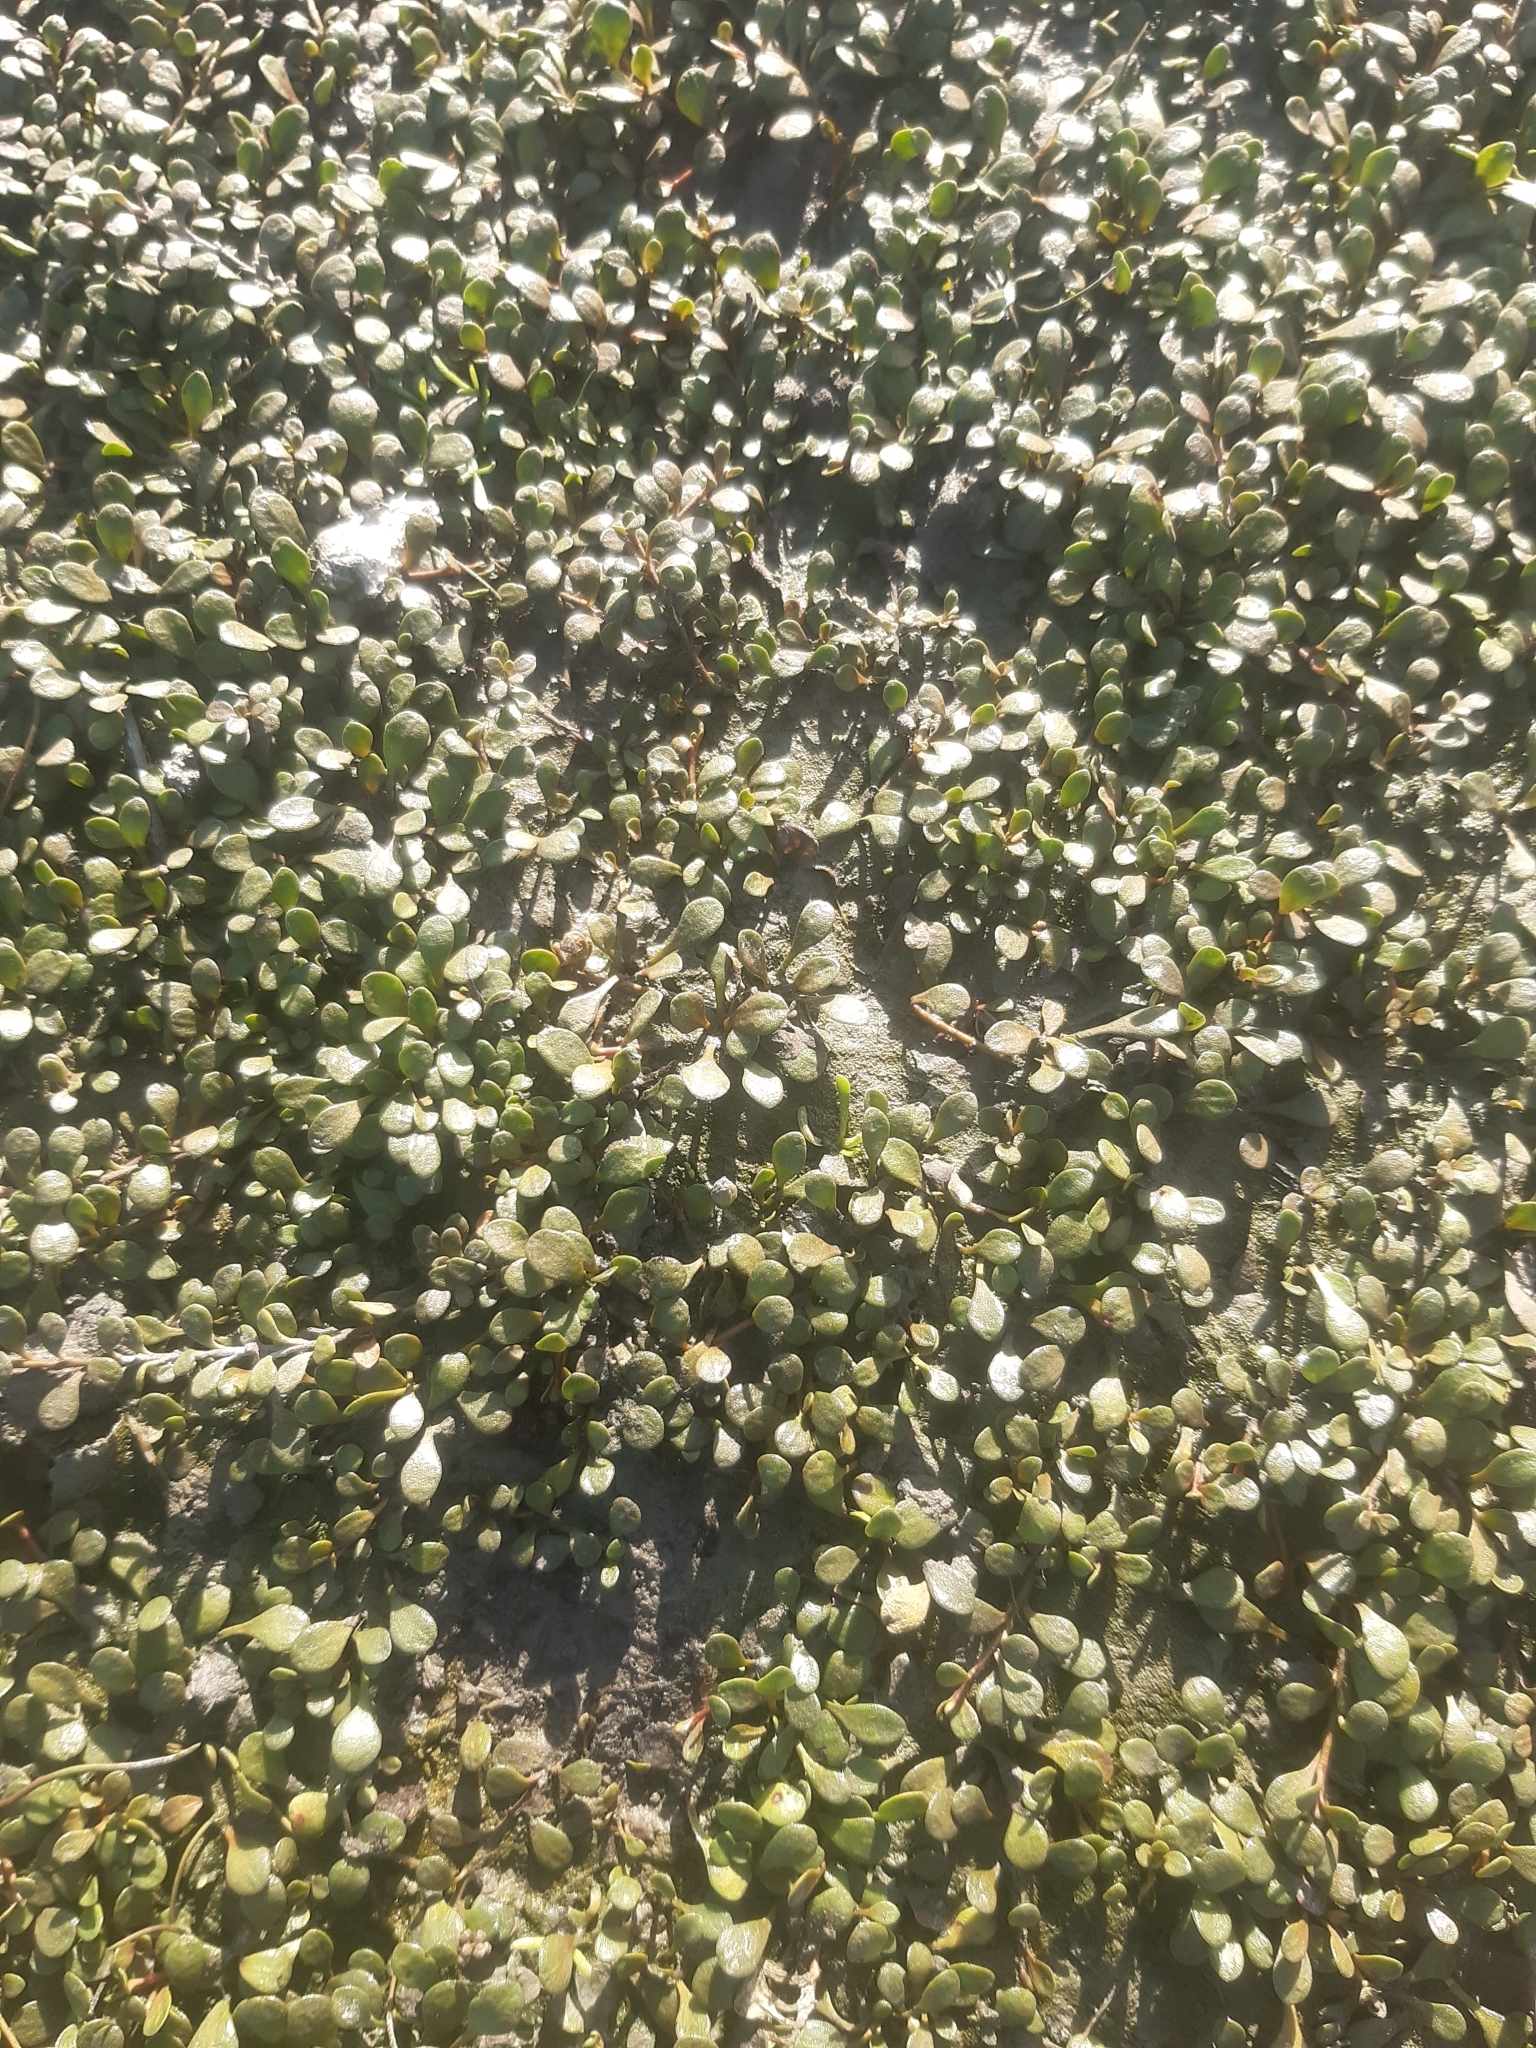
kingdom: Plantae
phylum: Tracheophyta
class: Magnoliopsida
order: Ericales
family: Primulaceae
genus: Samolus
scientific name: Samolus repens
